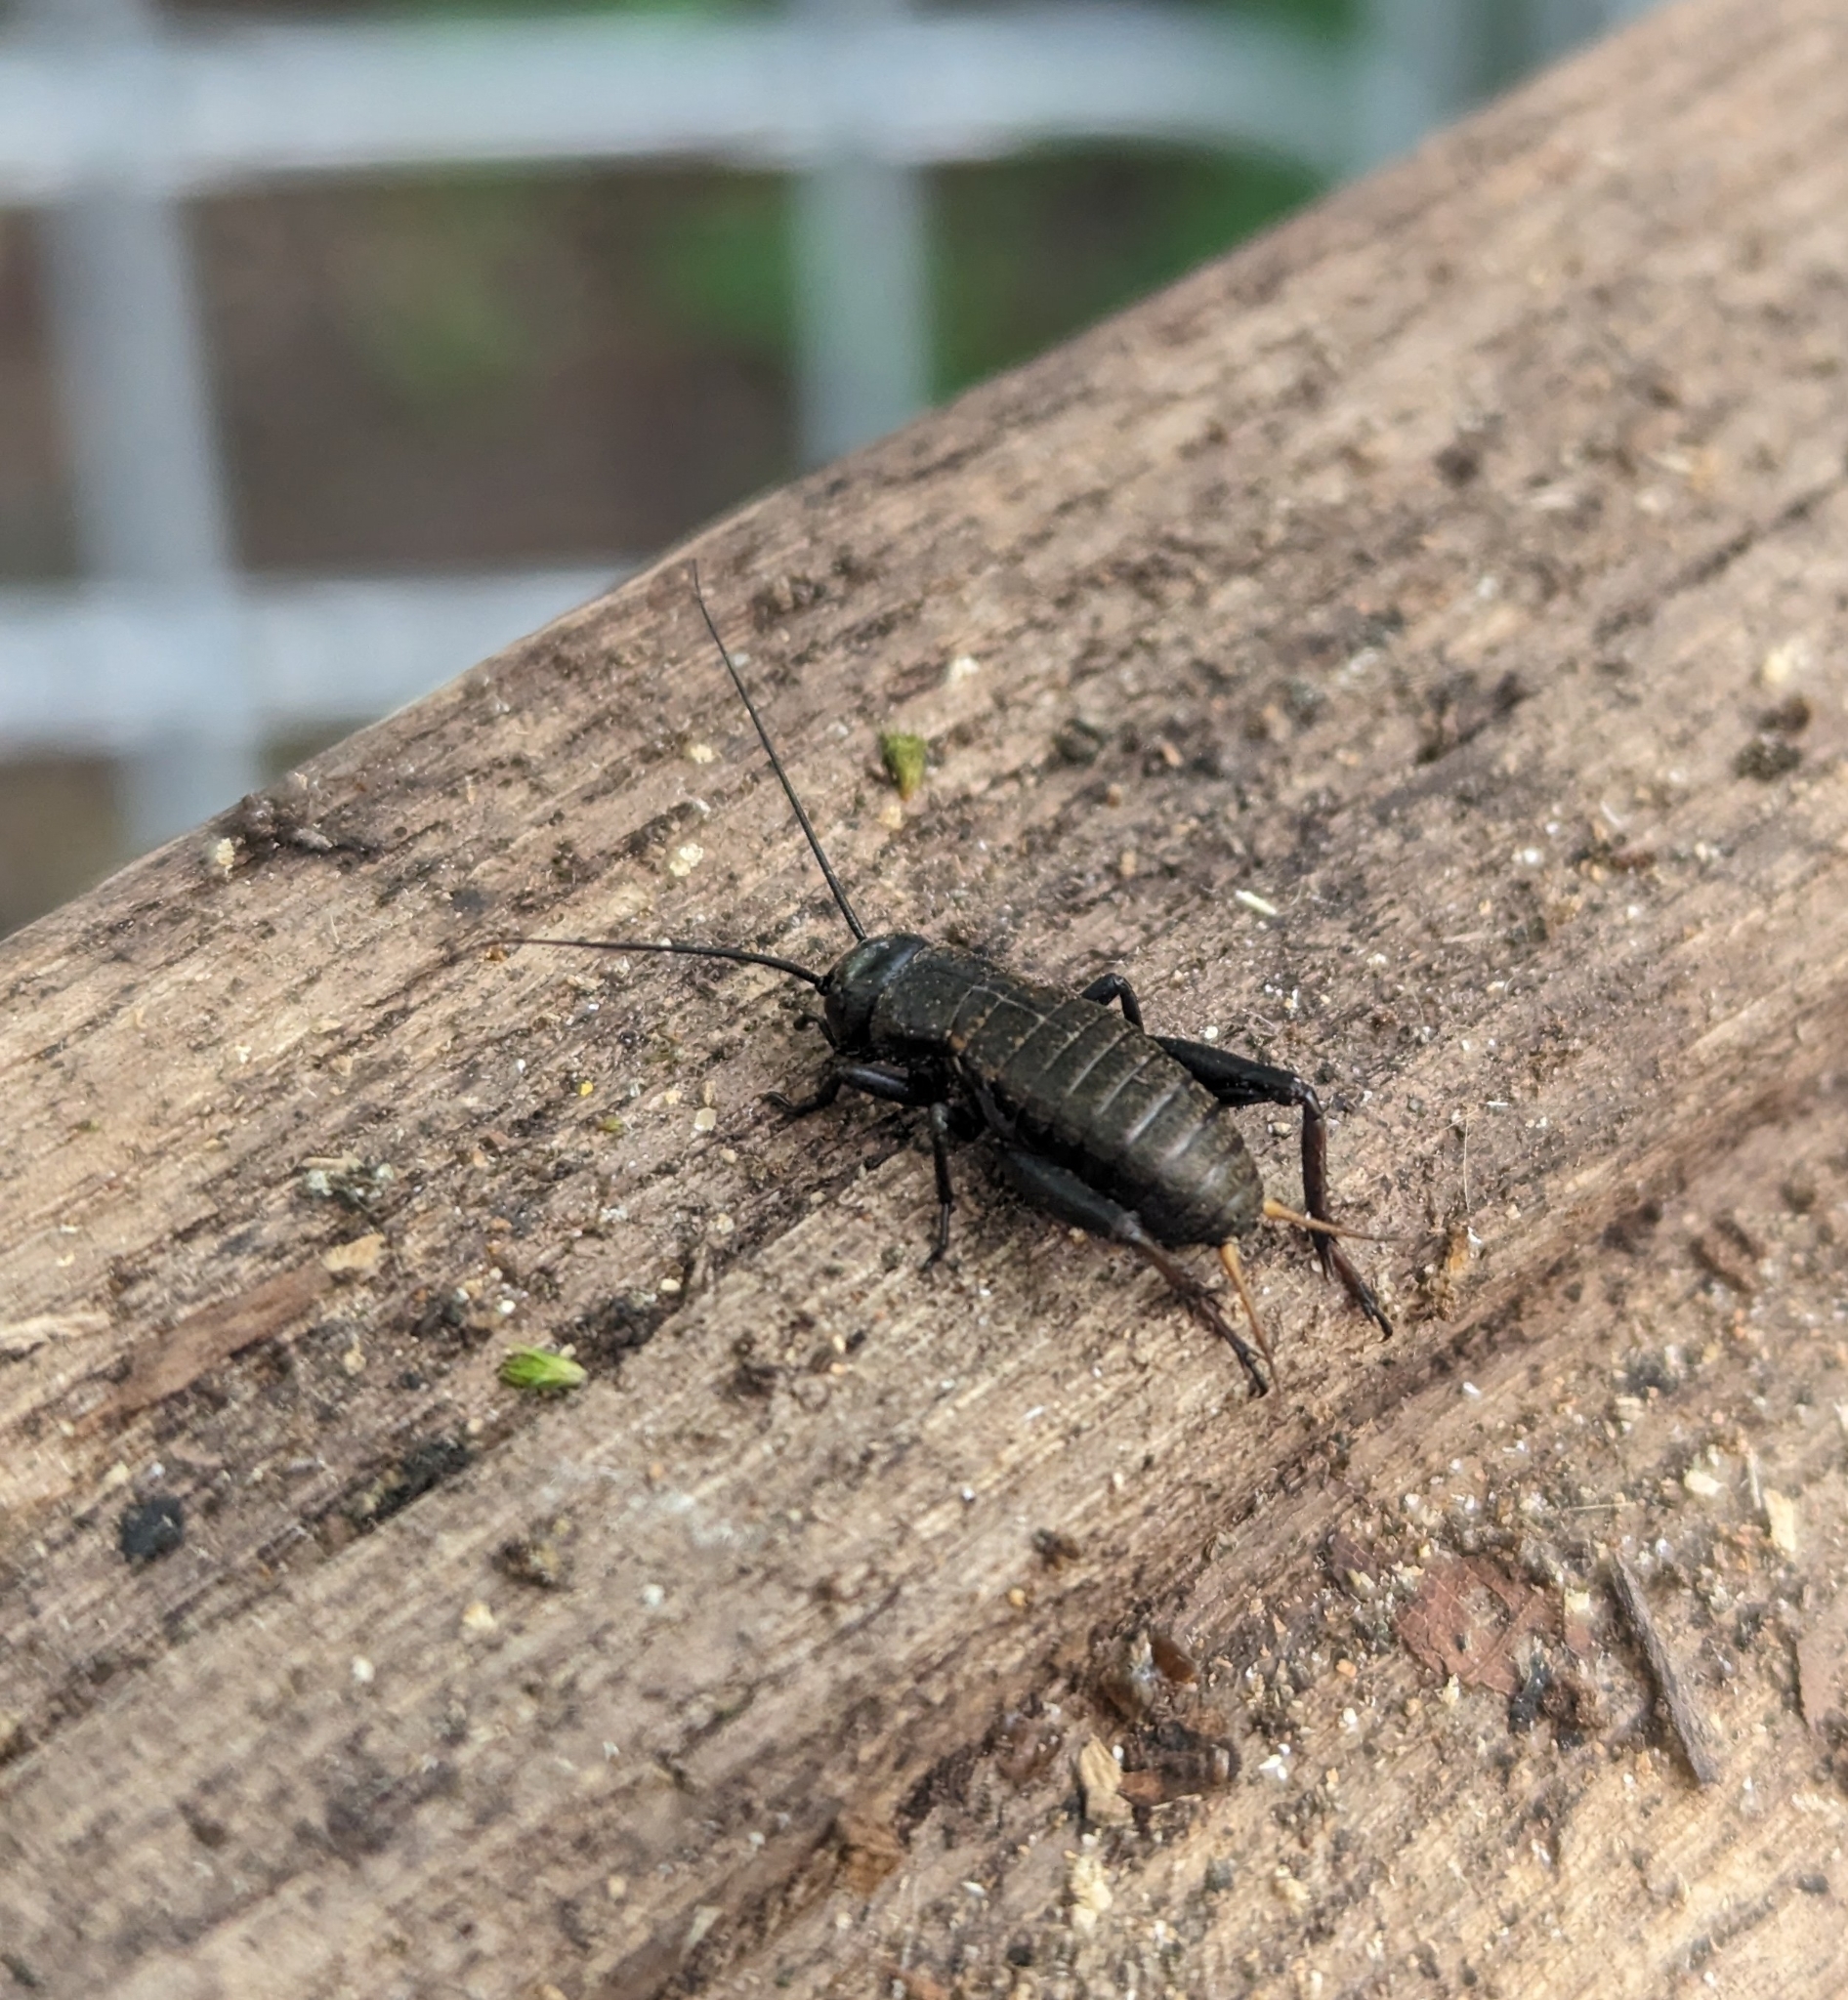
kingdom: Animalia
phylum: Arthropoda
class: Insecta
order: Orthoptera
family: Gryllidae
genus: Gryllus
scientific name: Gryllus campestris
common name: Field cricket
